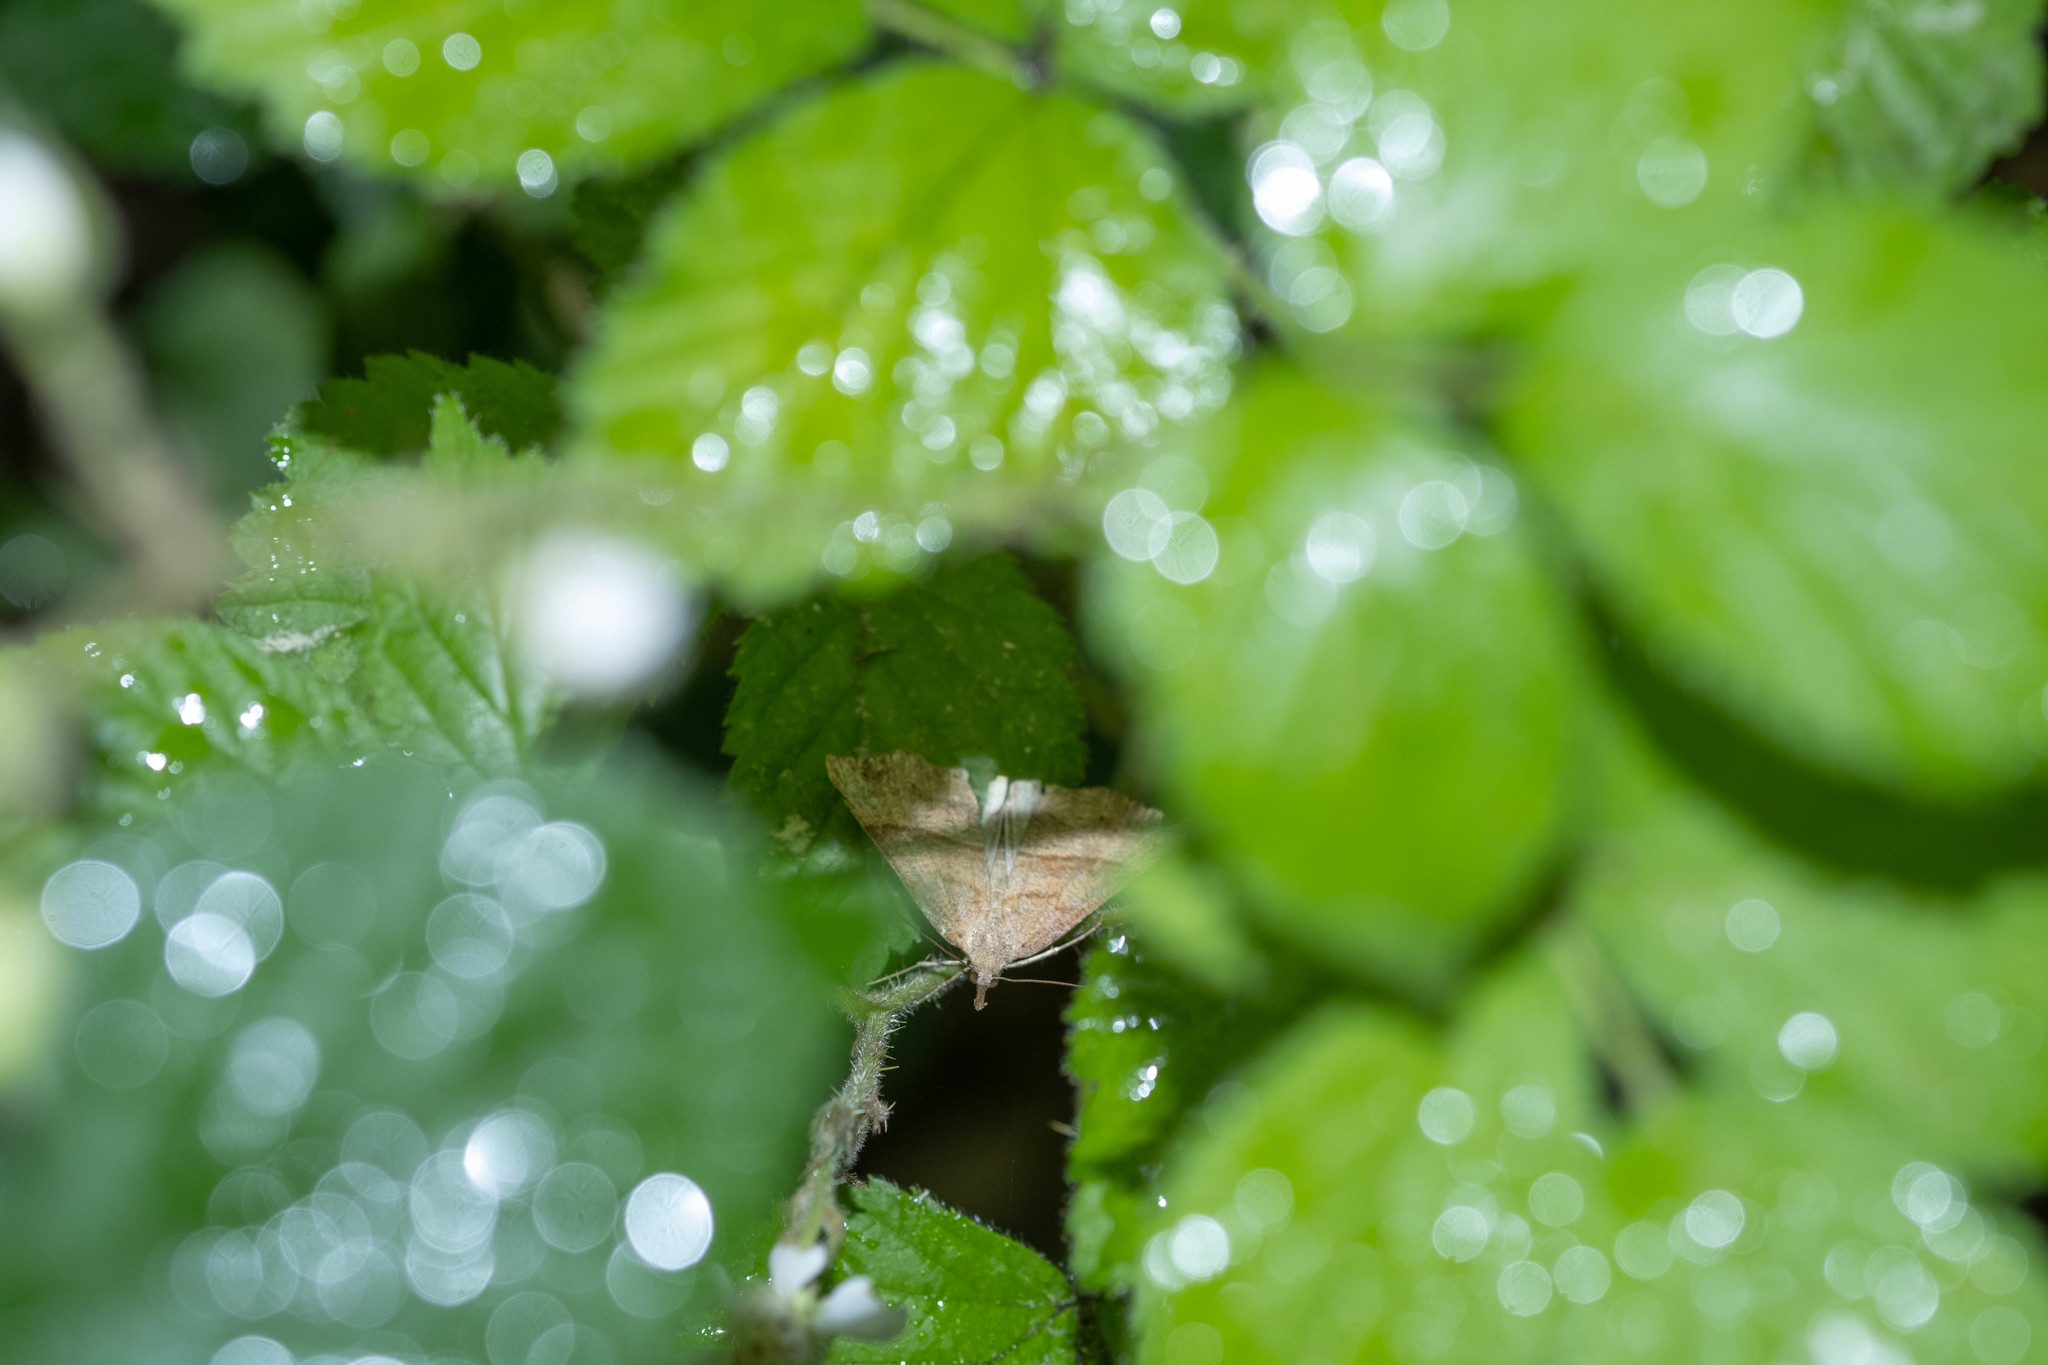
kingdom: Animalia
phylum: Arthropoda
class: Insecta
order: Lepidoptera
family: Erebidae
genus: Hypena
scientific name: Hypena proboscidalis
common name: Snout
